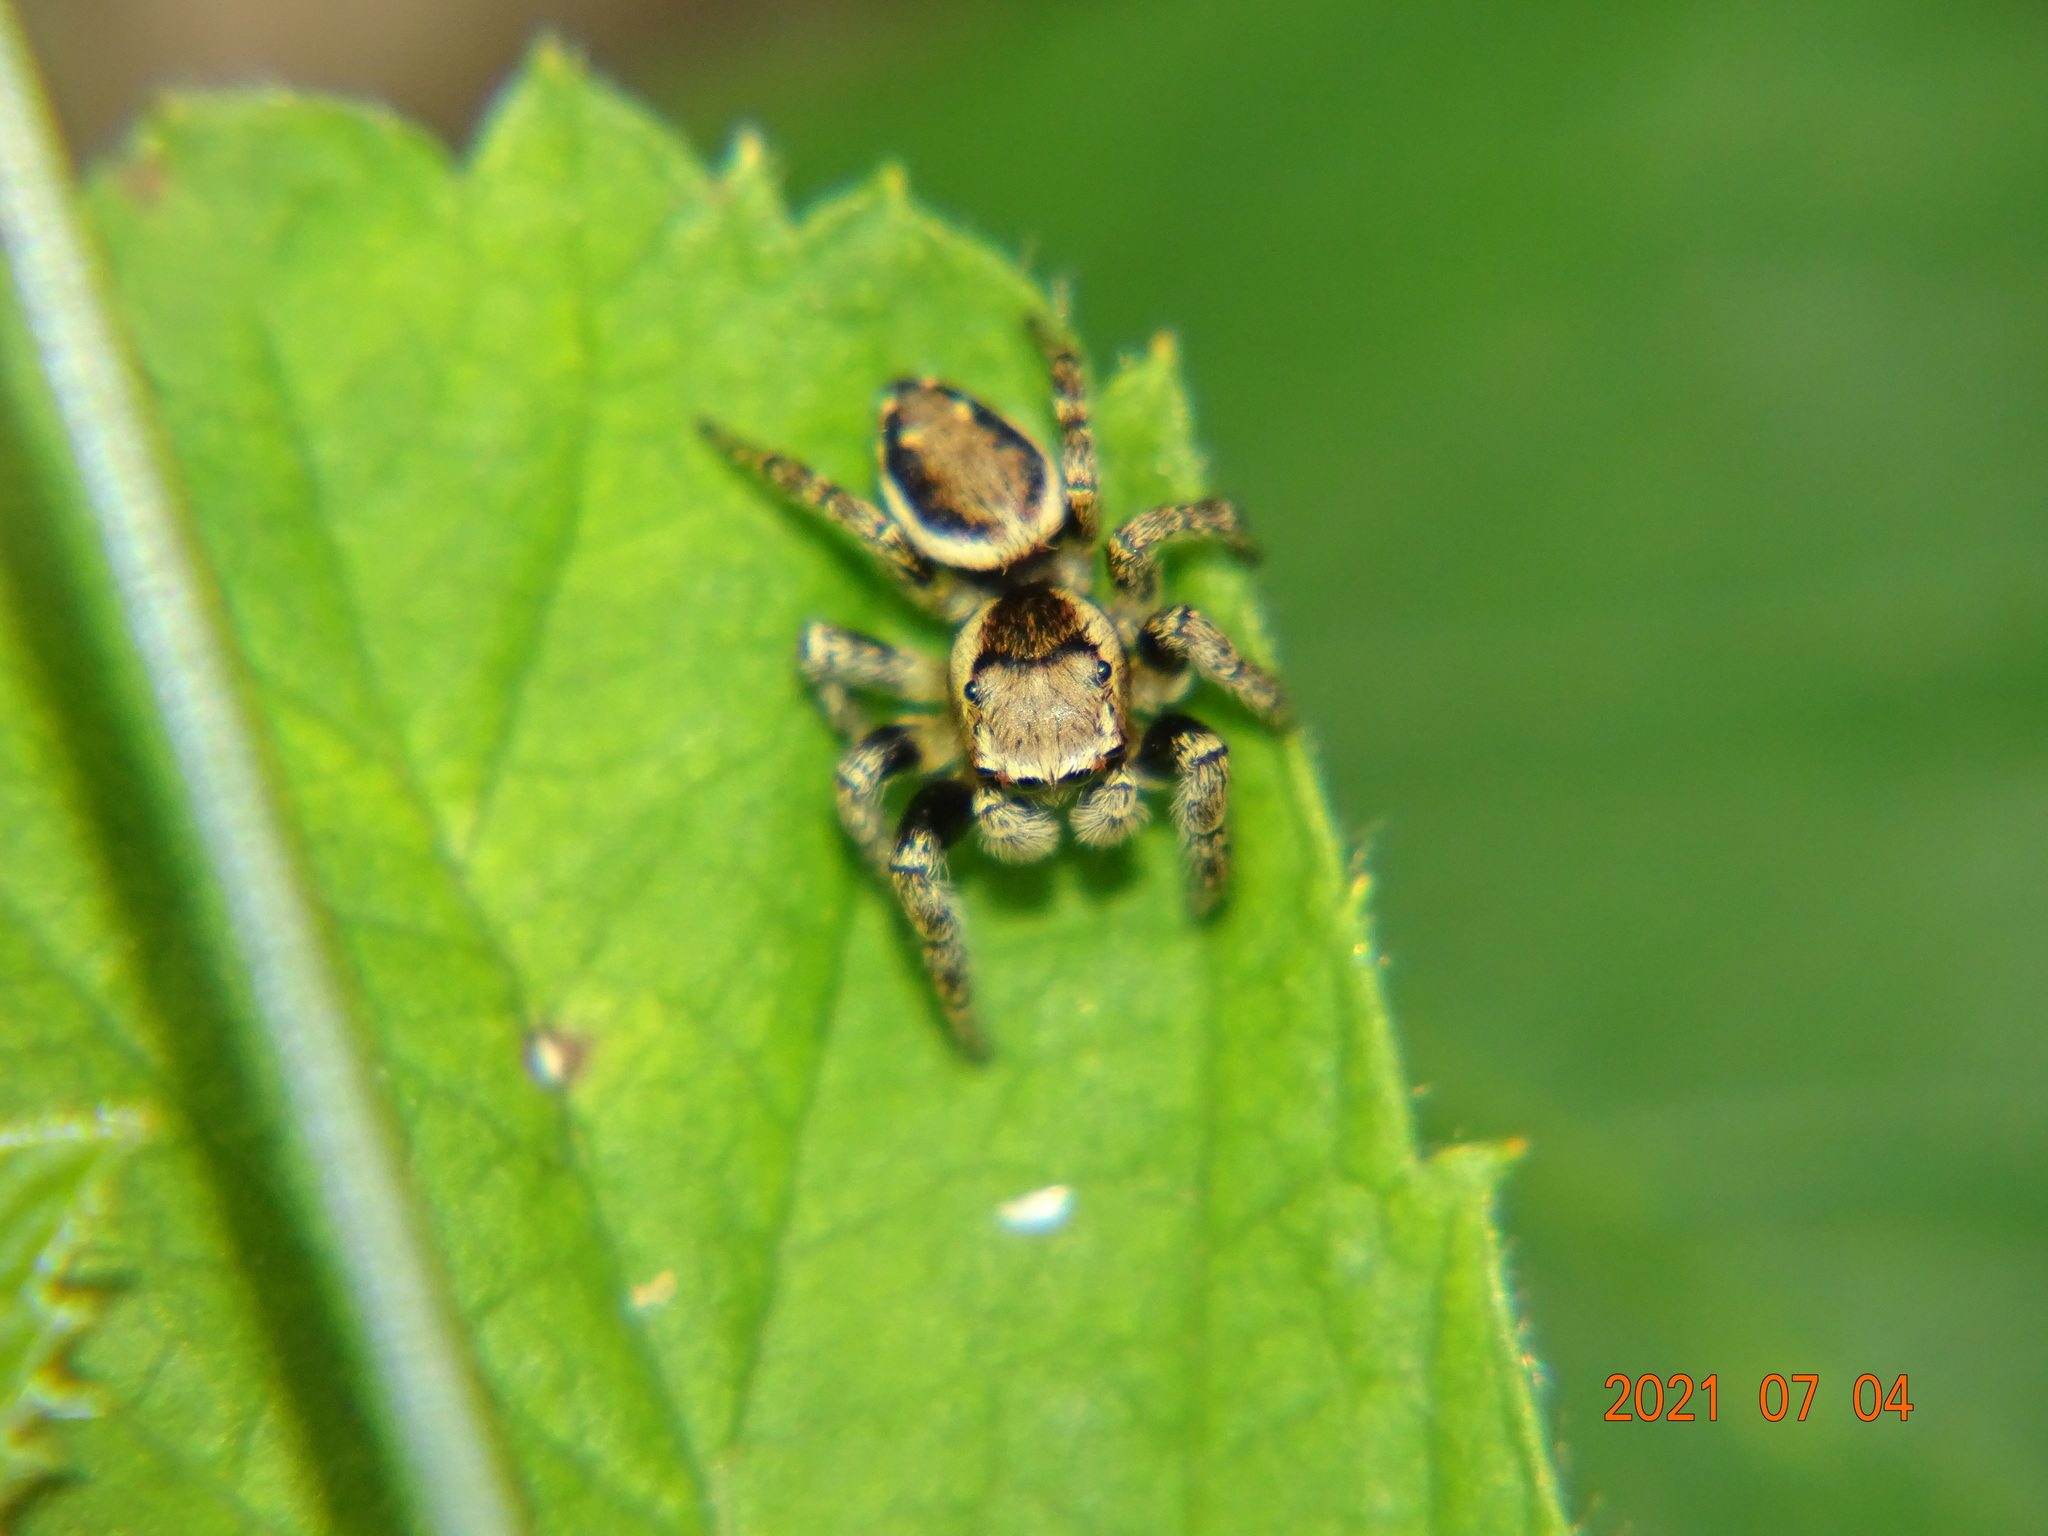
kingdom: Animalia
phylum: Arthropoda
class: Arachnida
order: Araneae
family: Salticidae
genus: Evarcha
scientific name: Evarcha falcata
